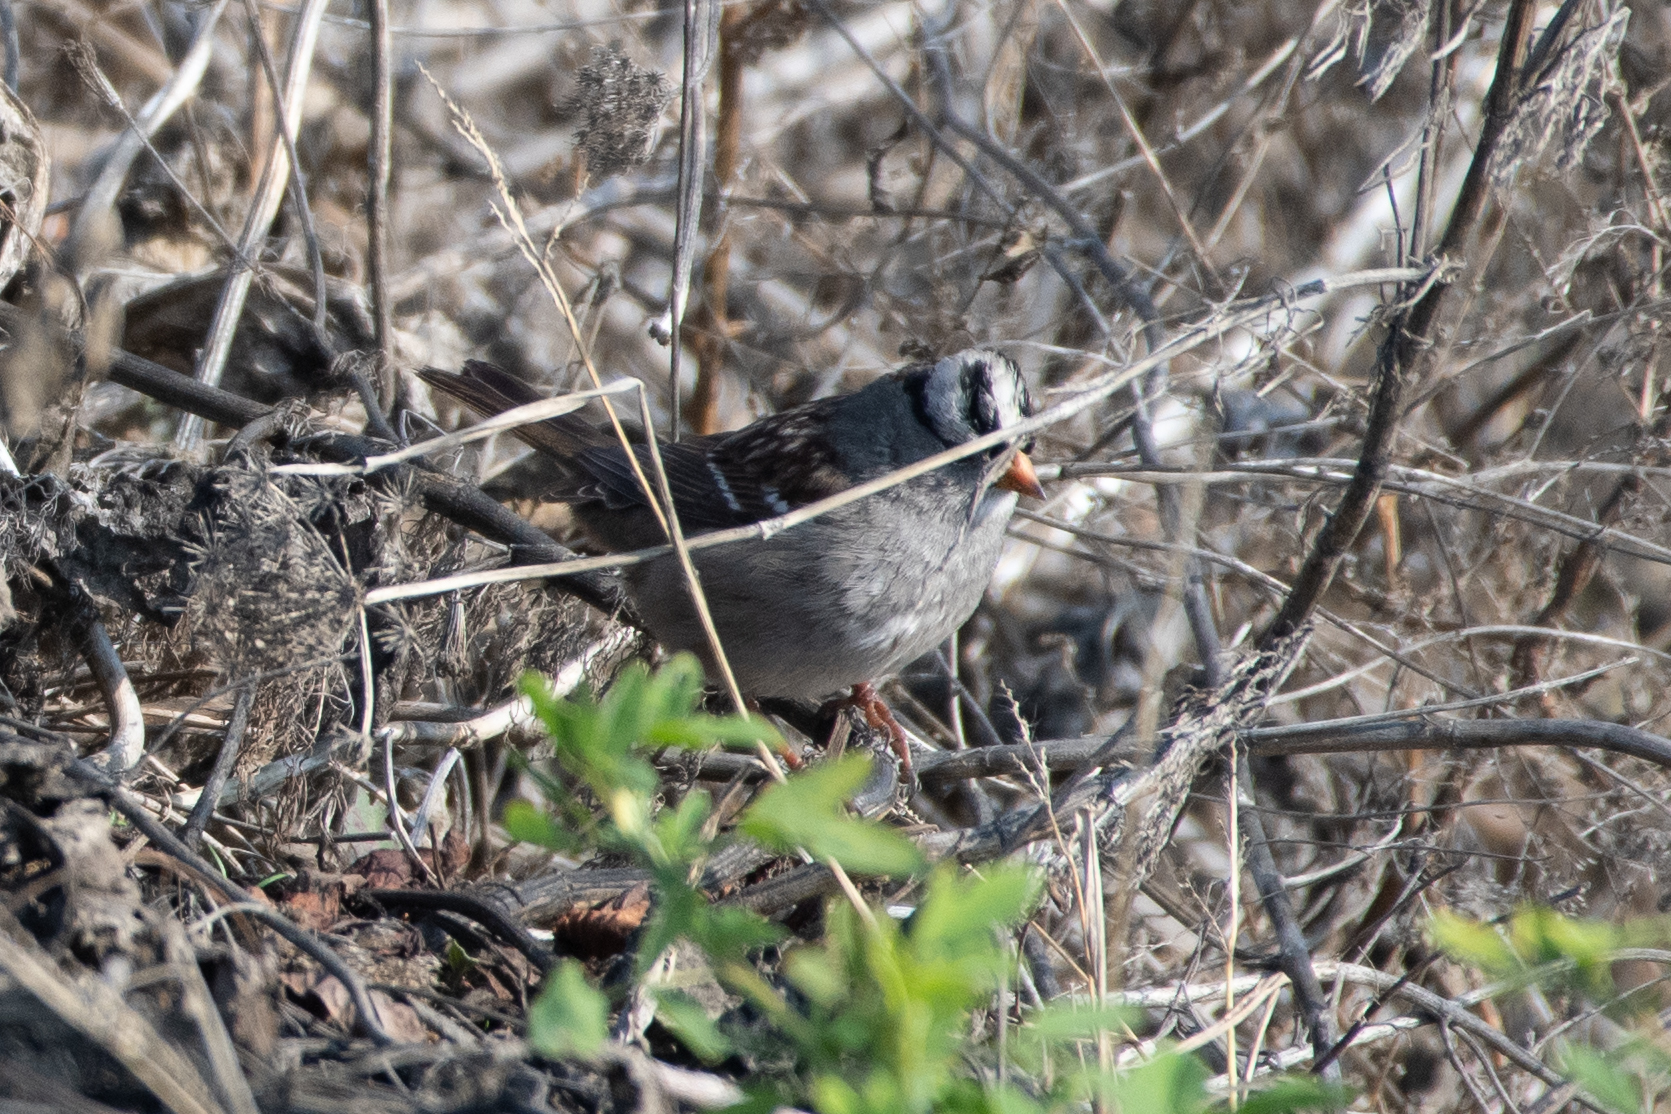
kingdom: Animalia
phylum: Chordata
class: Aves
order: Passeriformes
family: Passerellidae
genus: Zonotrichia
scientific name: Zonotrichia leucophrys
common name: White-crowned sparrow
